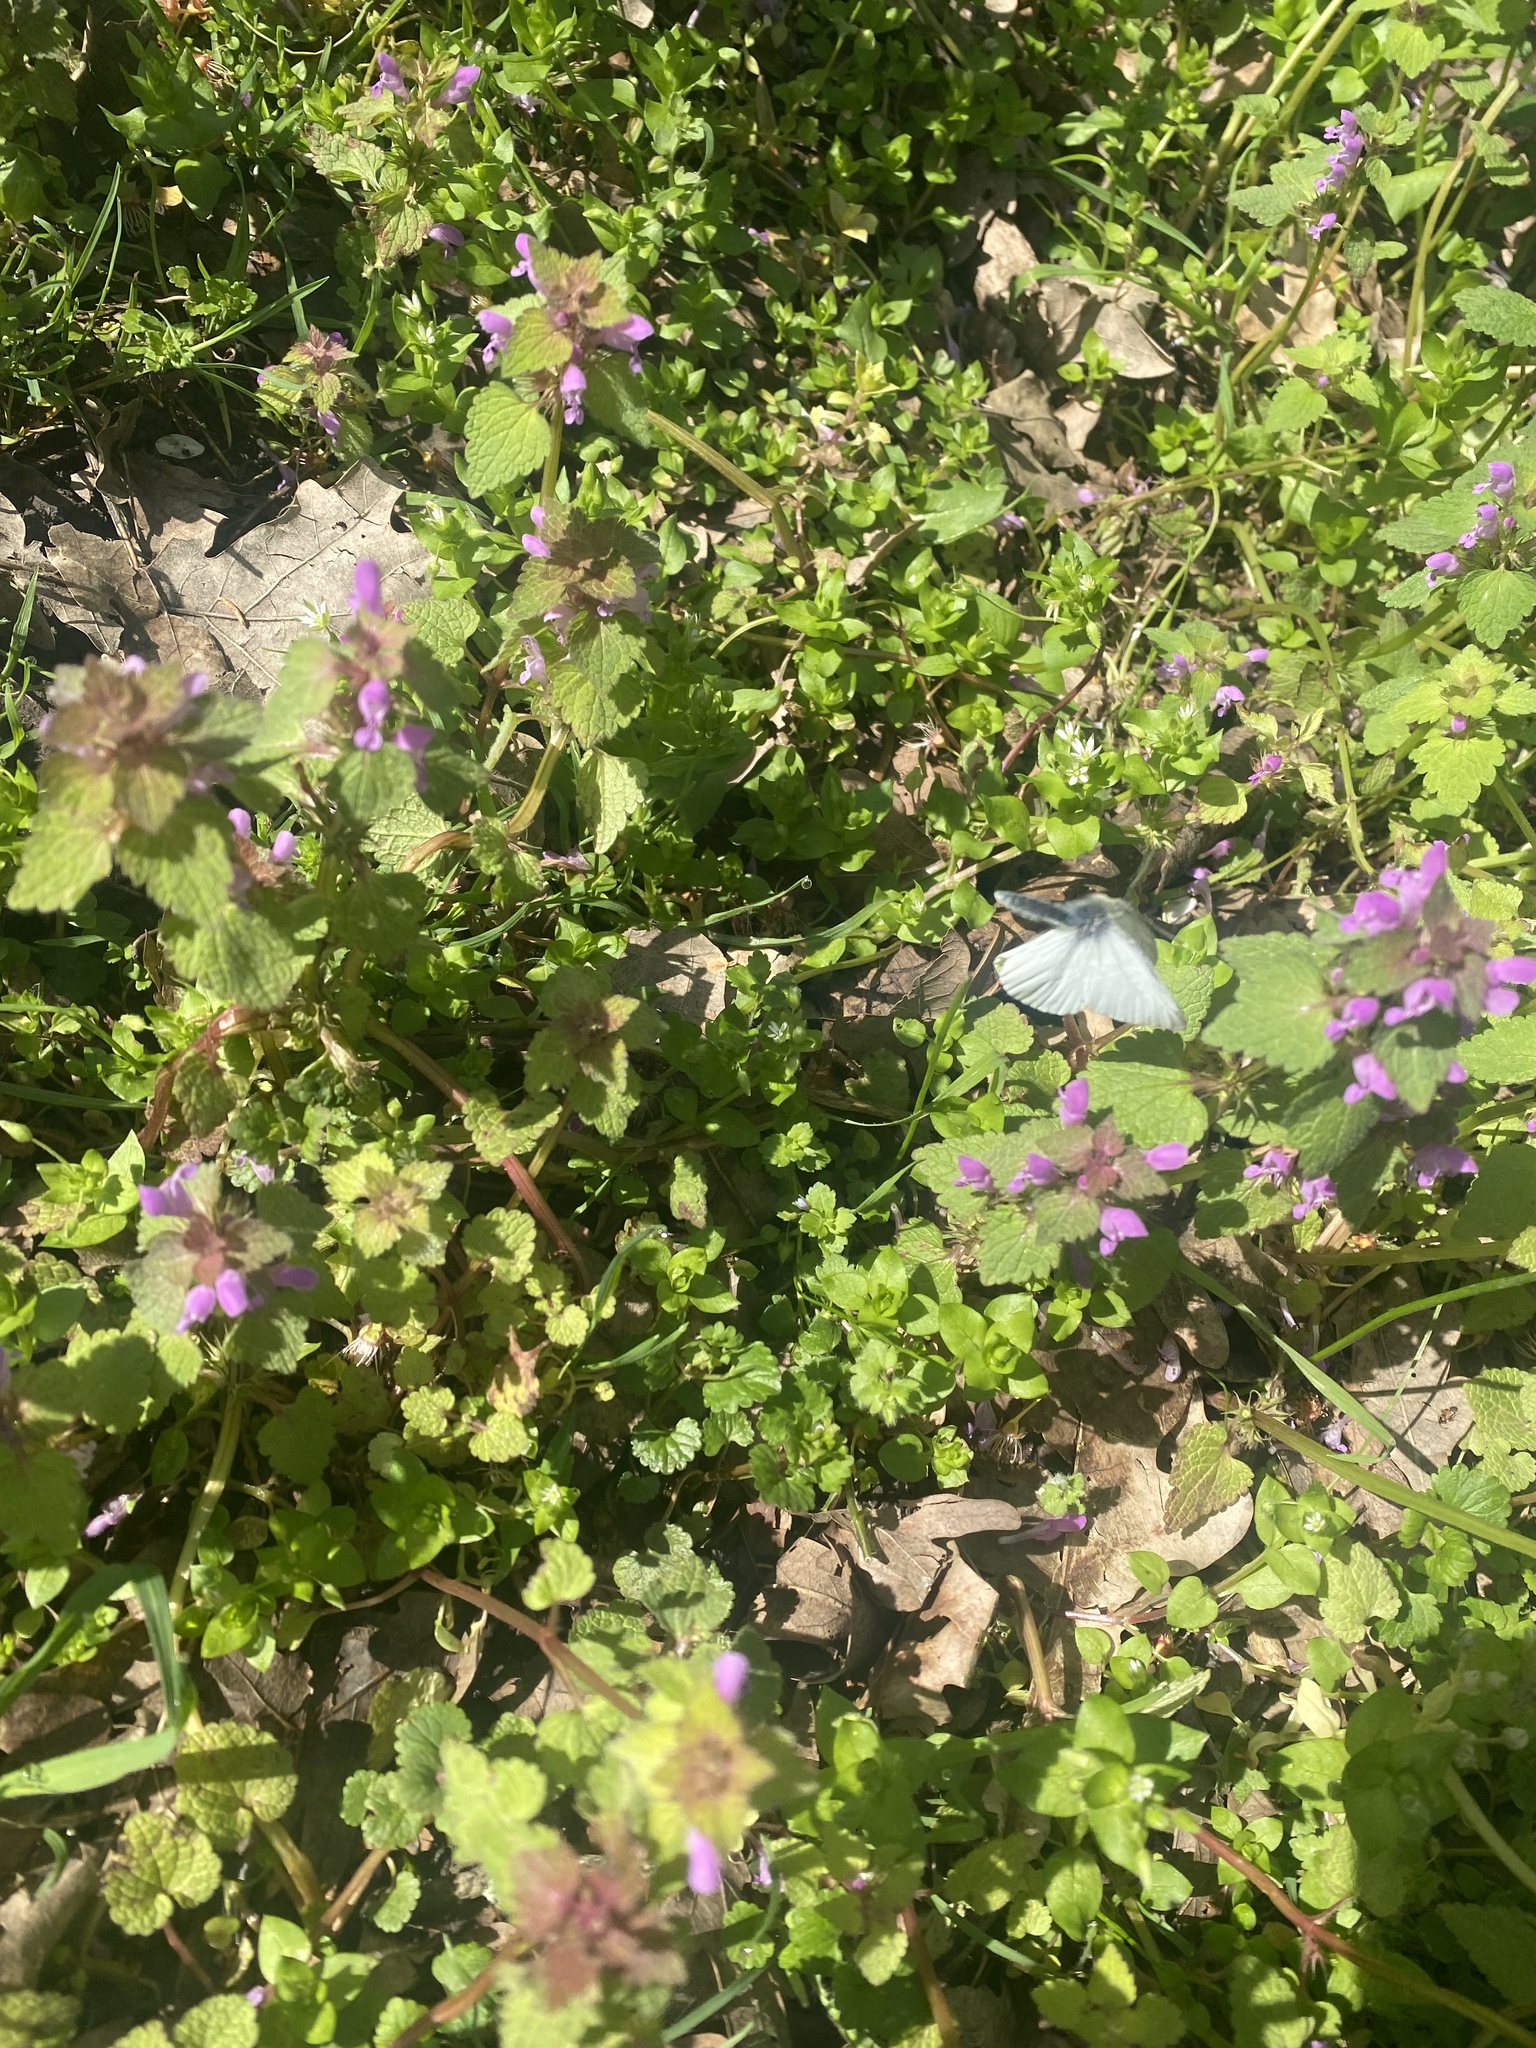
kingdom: Animalia
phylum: Arthropoda
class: Insecta
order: Lepidoptera
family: Pieridae
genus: Pieris
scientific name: Pieris napi
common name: Green-veined white
